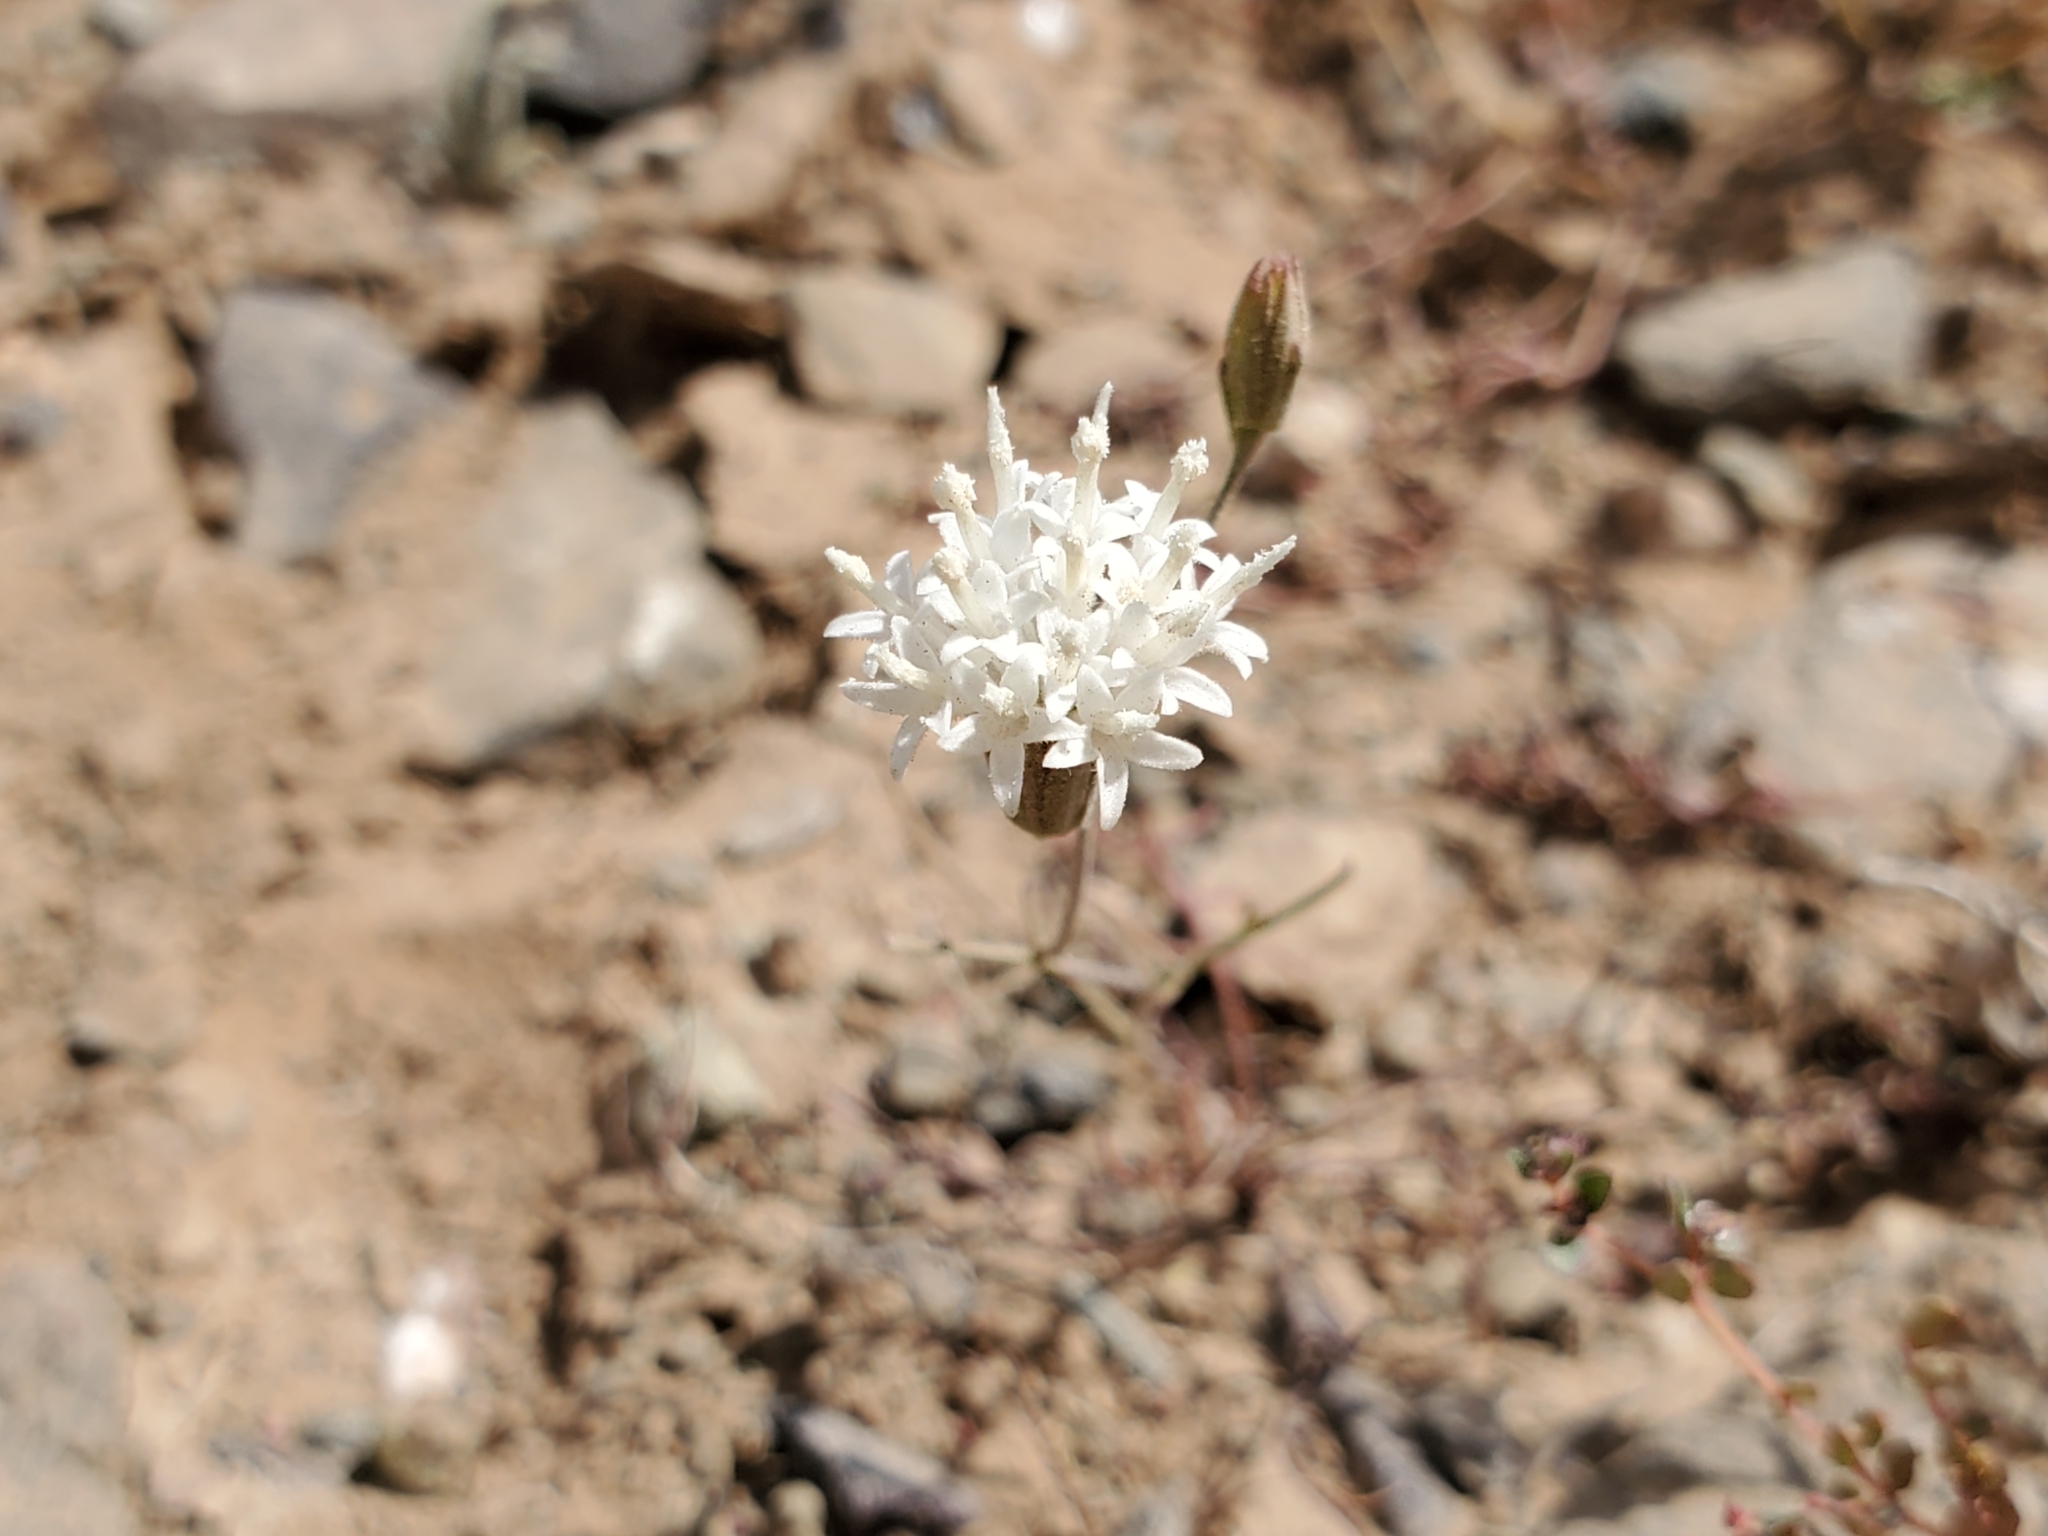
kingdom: Plantae
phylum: Tracheophyta
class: Magnoliopsida
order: Asterales
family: Asteraceae
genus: Chaenactis
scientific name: Chaenactis carphoclinia
